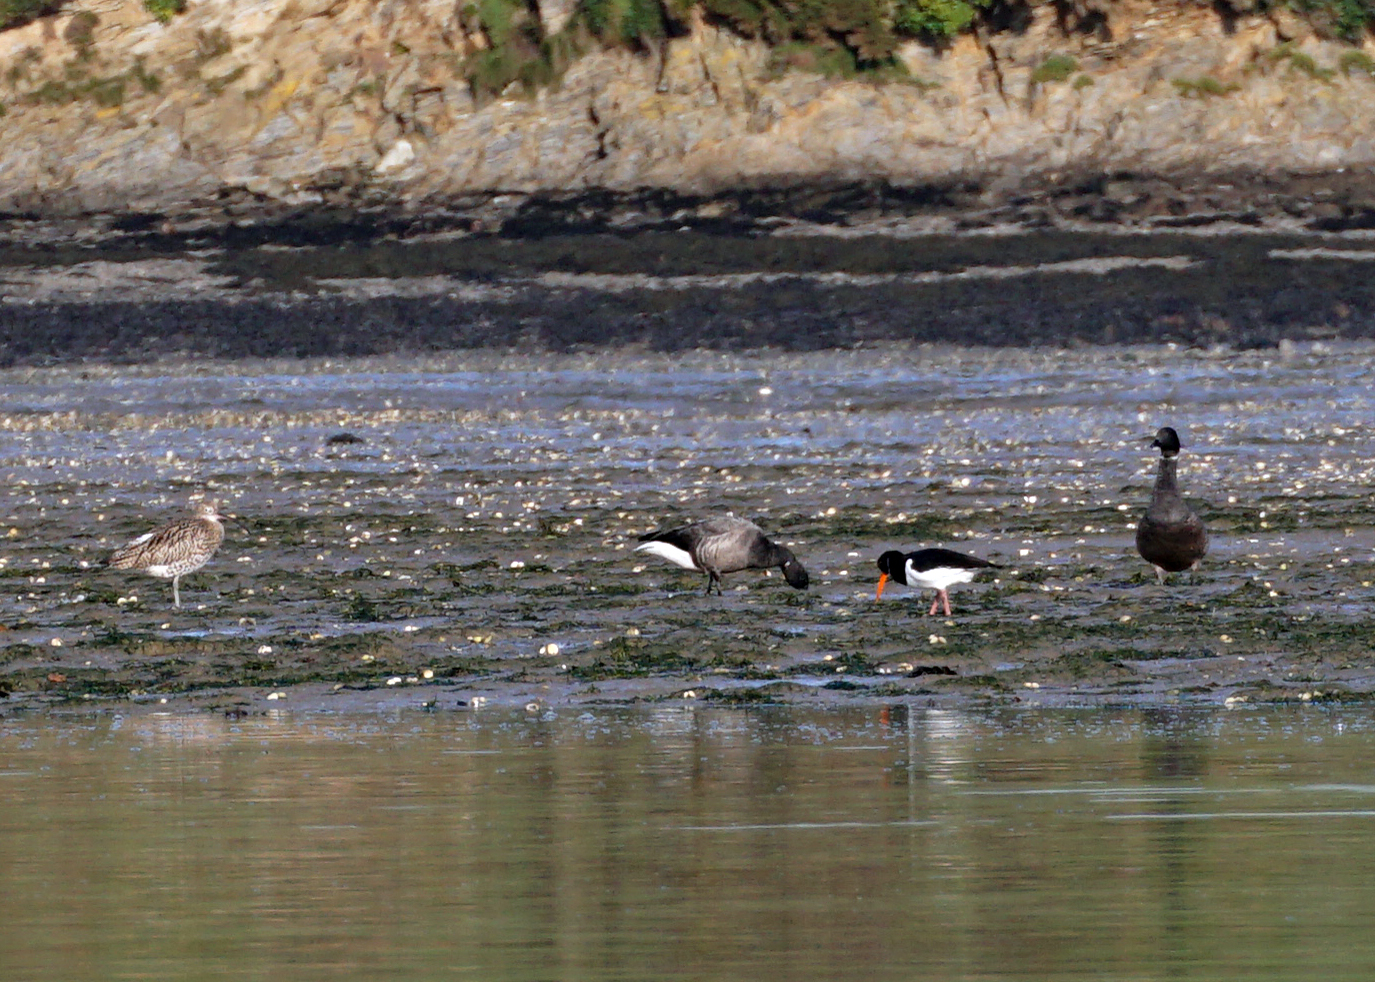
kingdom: Animalia
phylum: Chordata
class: Aves
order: Charadriiformes
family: Haematopodidae
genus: Haematopus
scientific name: Haematopus ostralegus
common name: Eurasian oystercatcher
